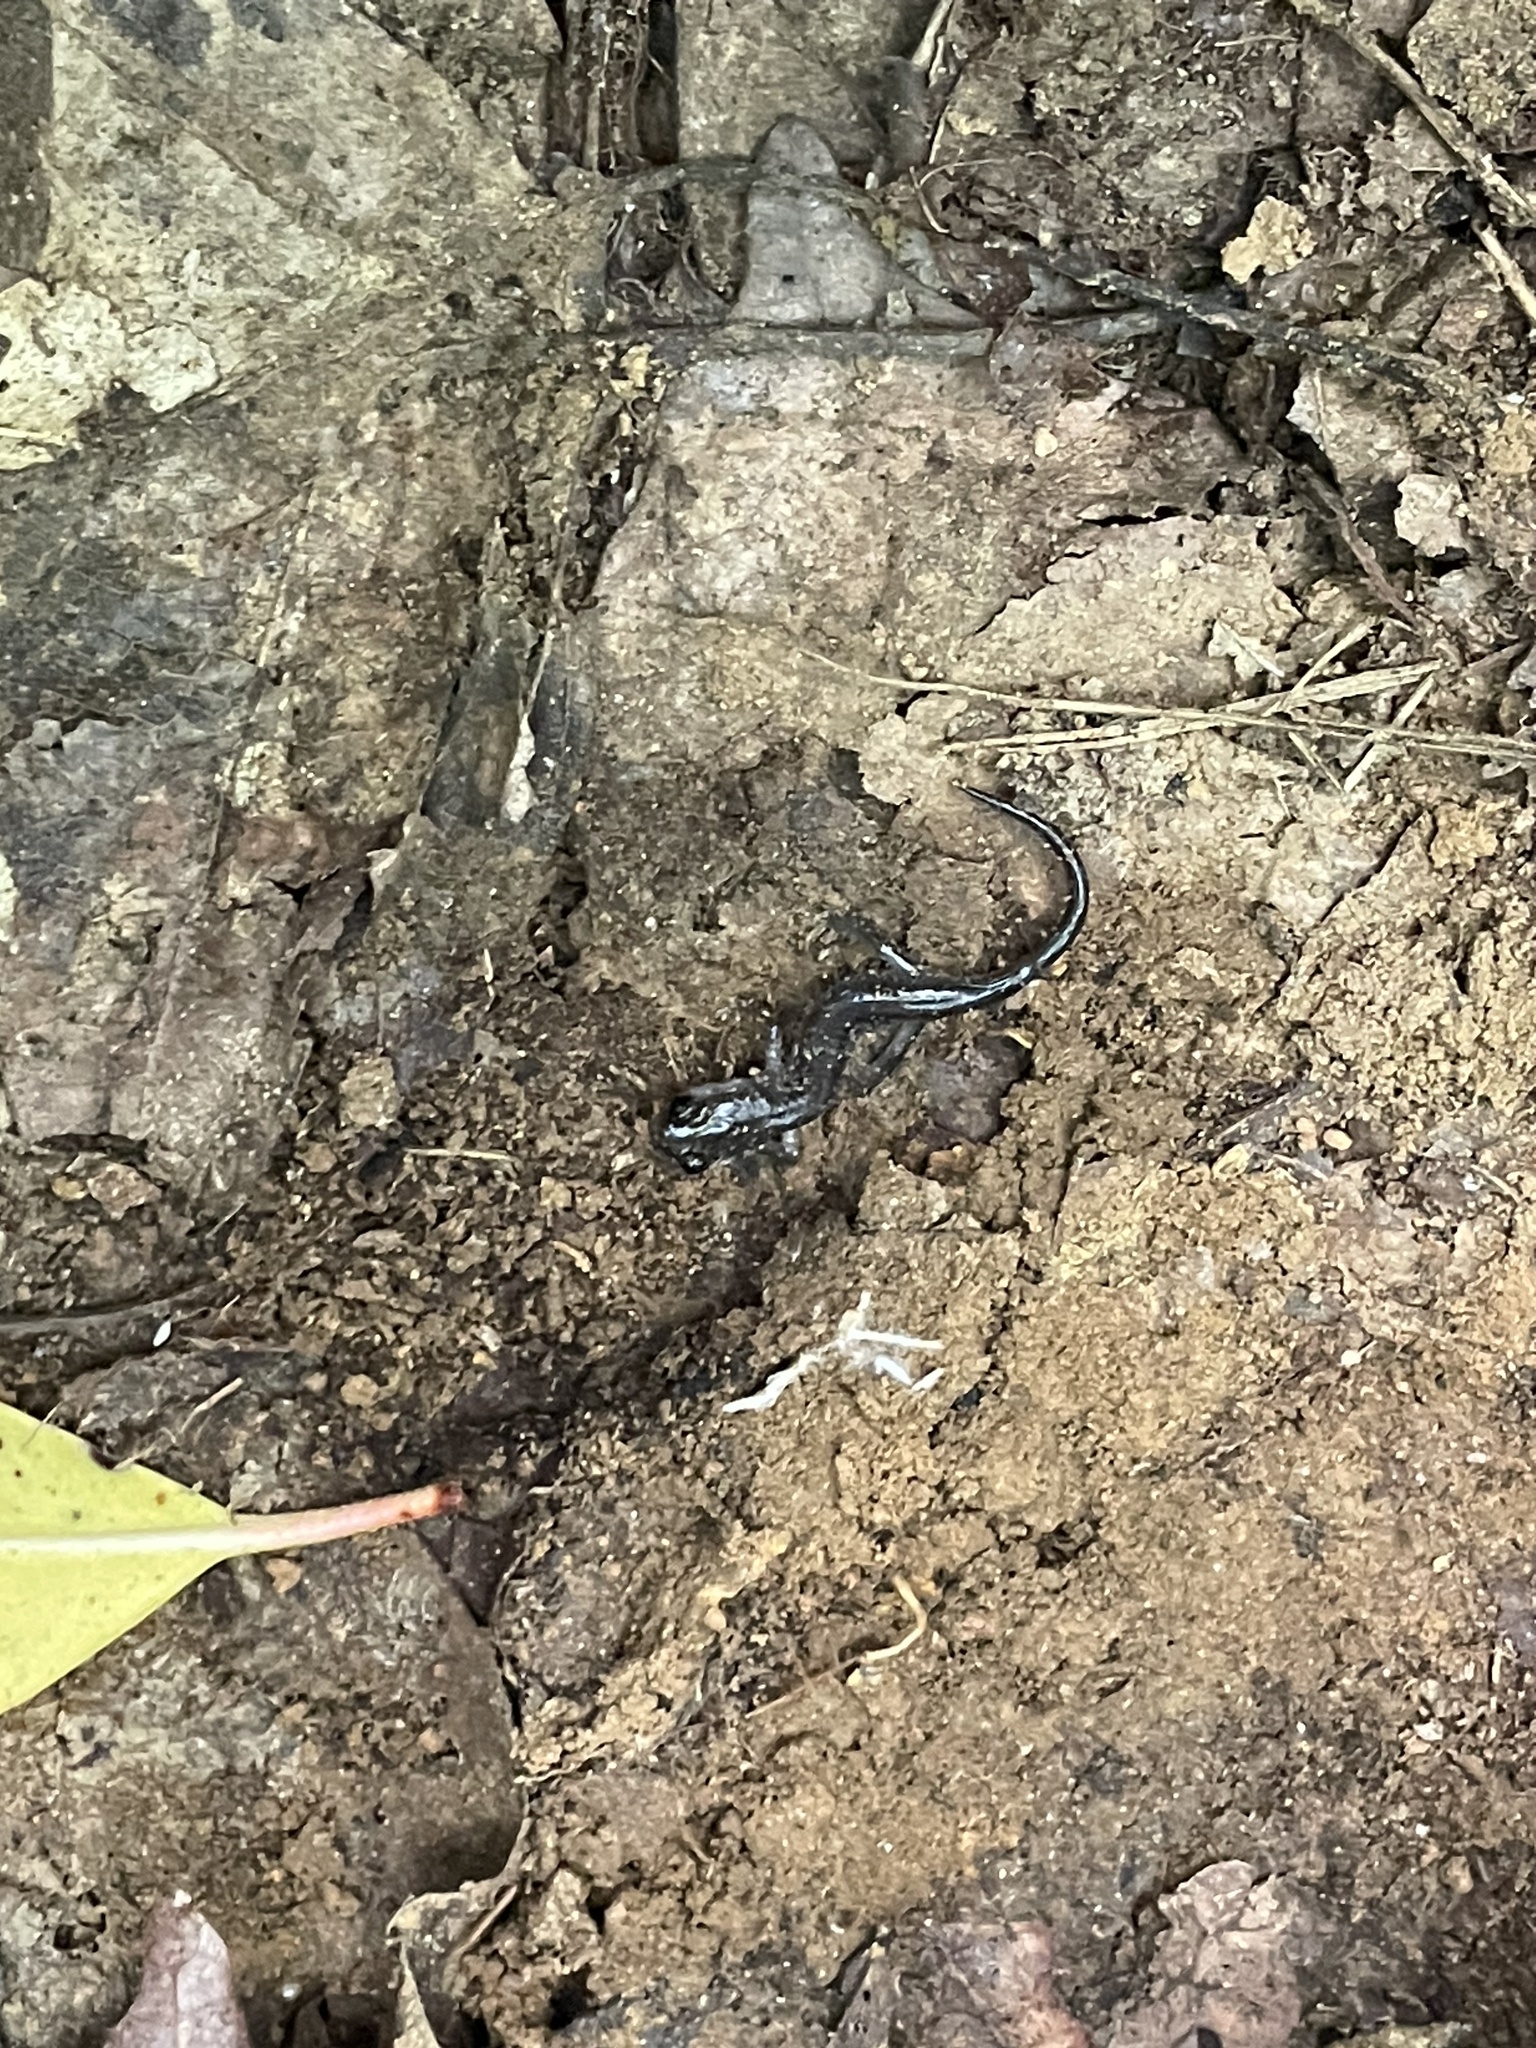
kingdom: Animalia
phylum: Chordata
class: Amphibia
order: Caudata
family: Plethodontidae
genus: Plethodon
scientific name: Plethodon chattahoochee
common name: Chattahoochee slimy salamander
